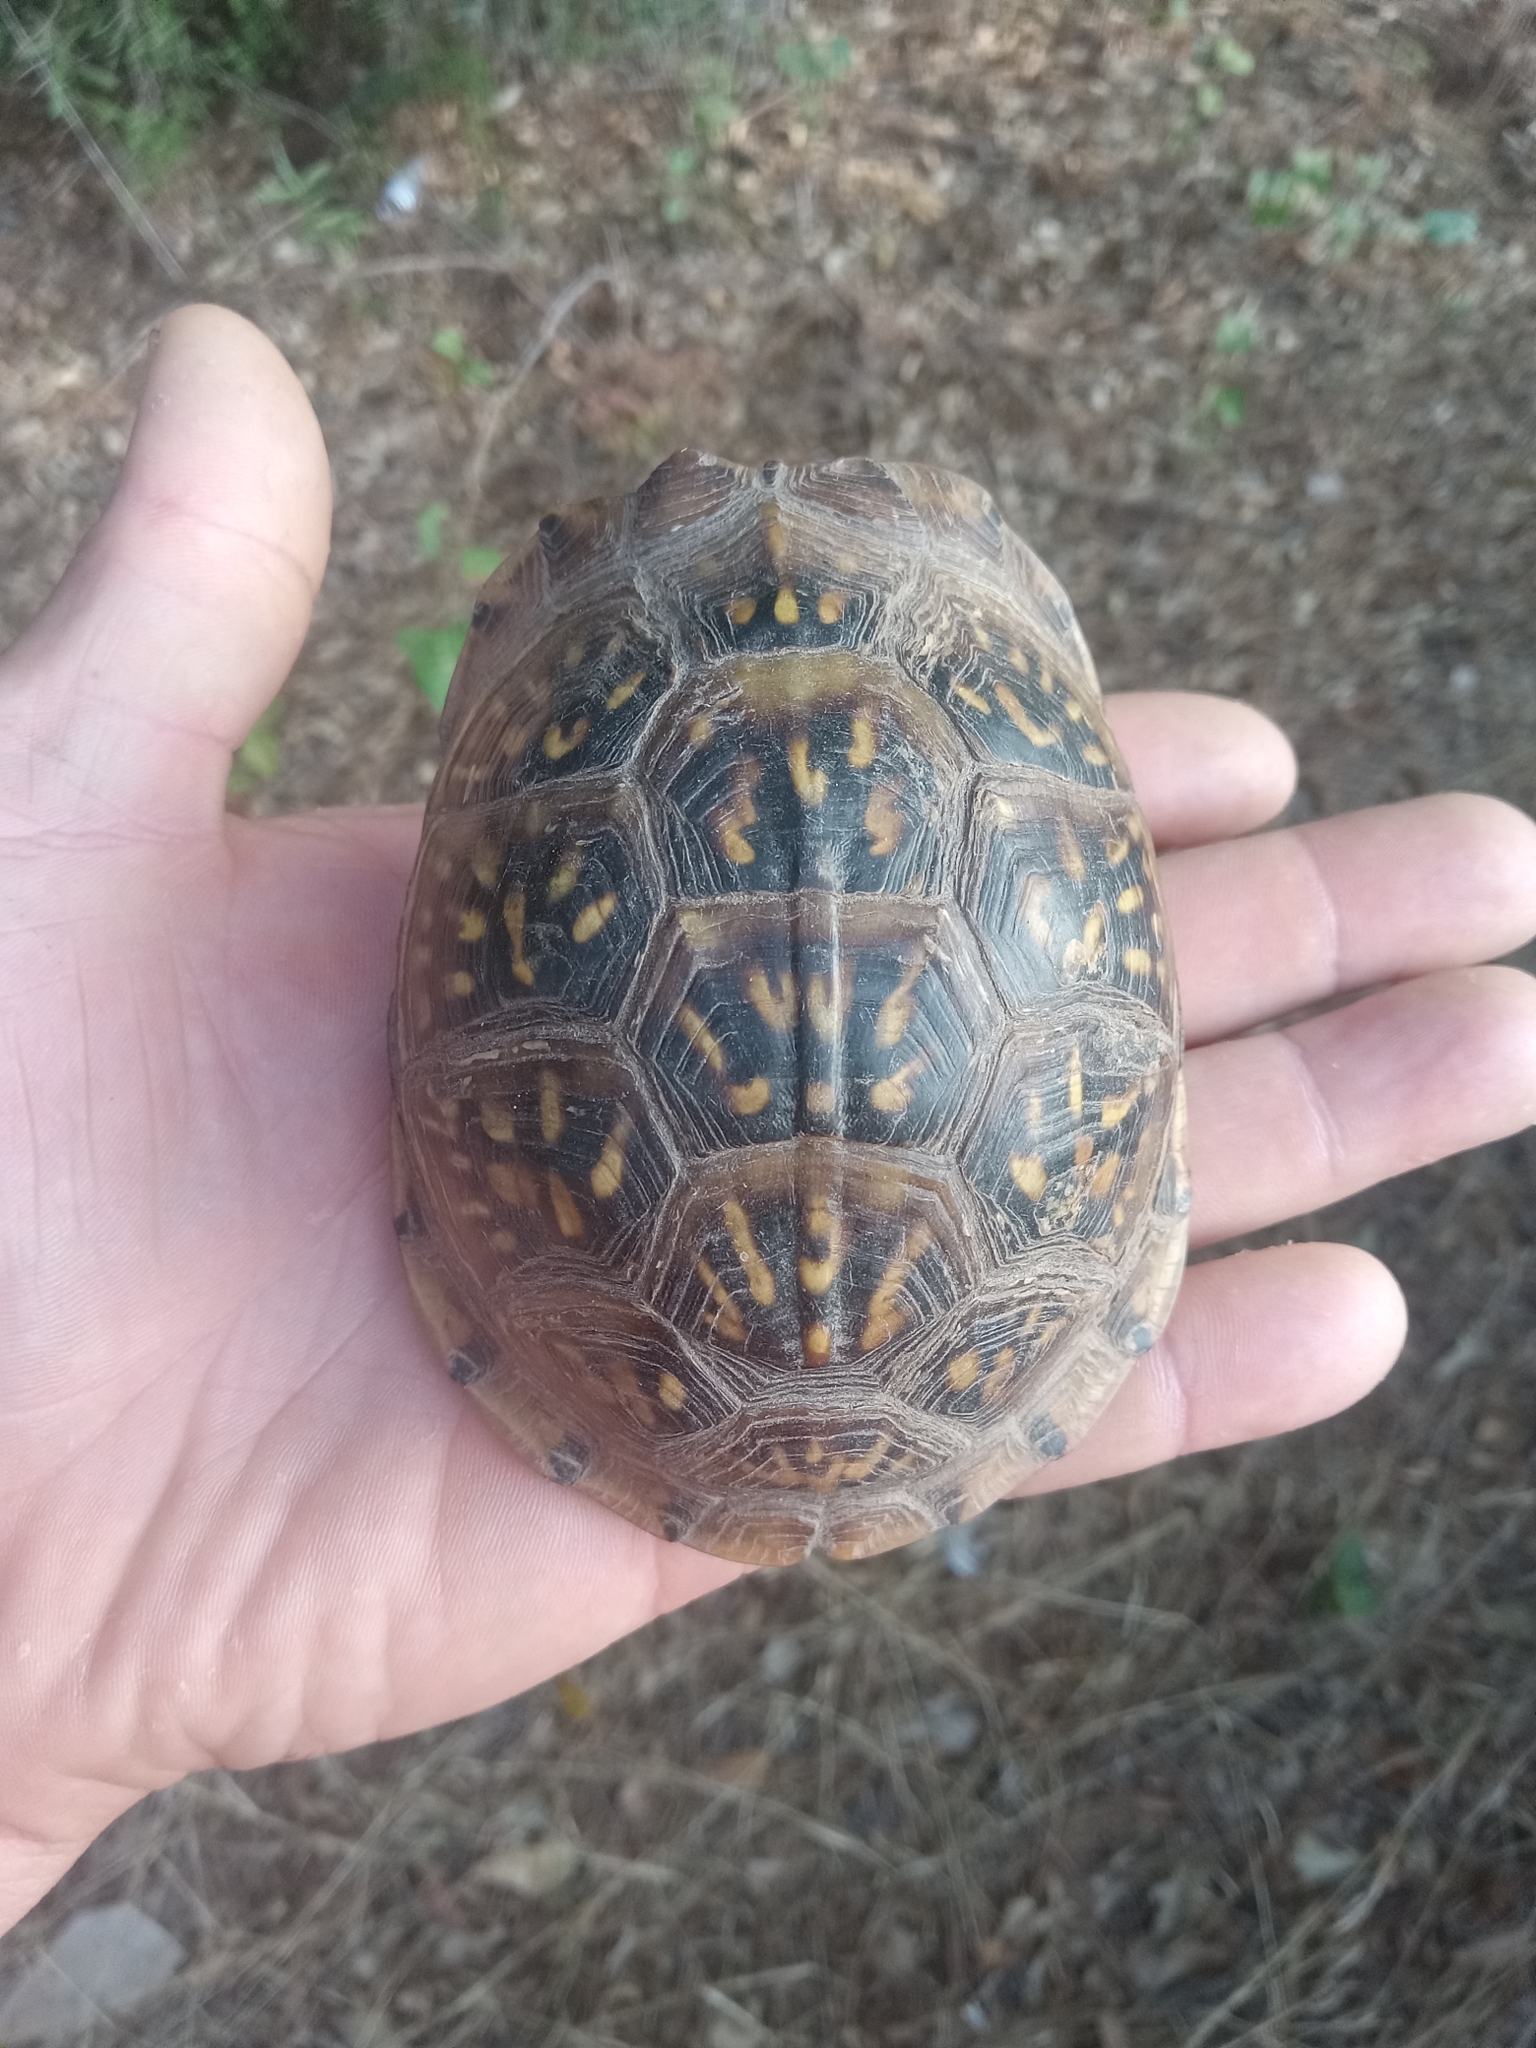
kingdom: Animalia
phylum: Chordata
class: Testudines
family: Emydidae
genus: Terrapene
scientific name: Terrapene carolina
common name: Common box turtle
